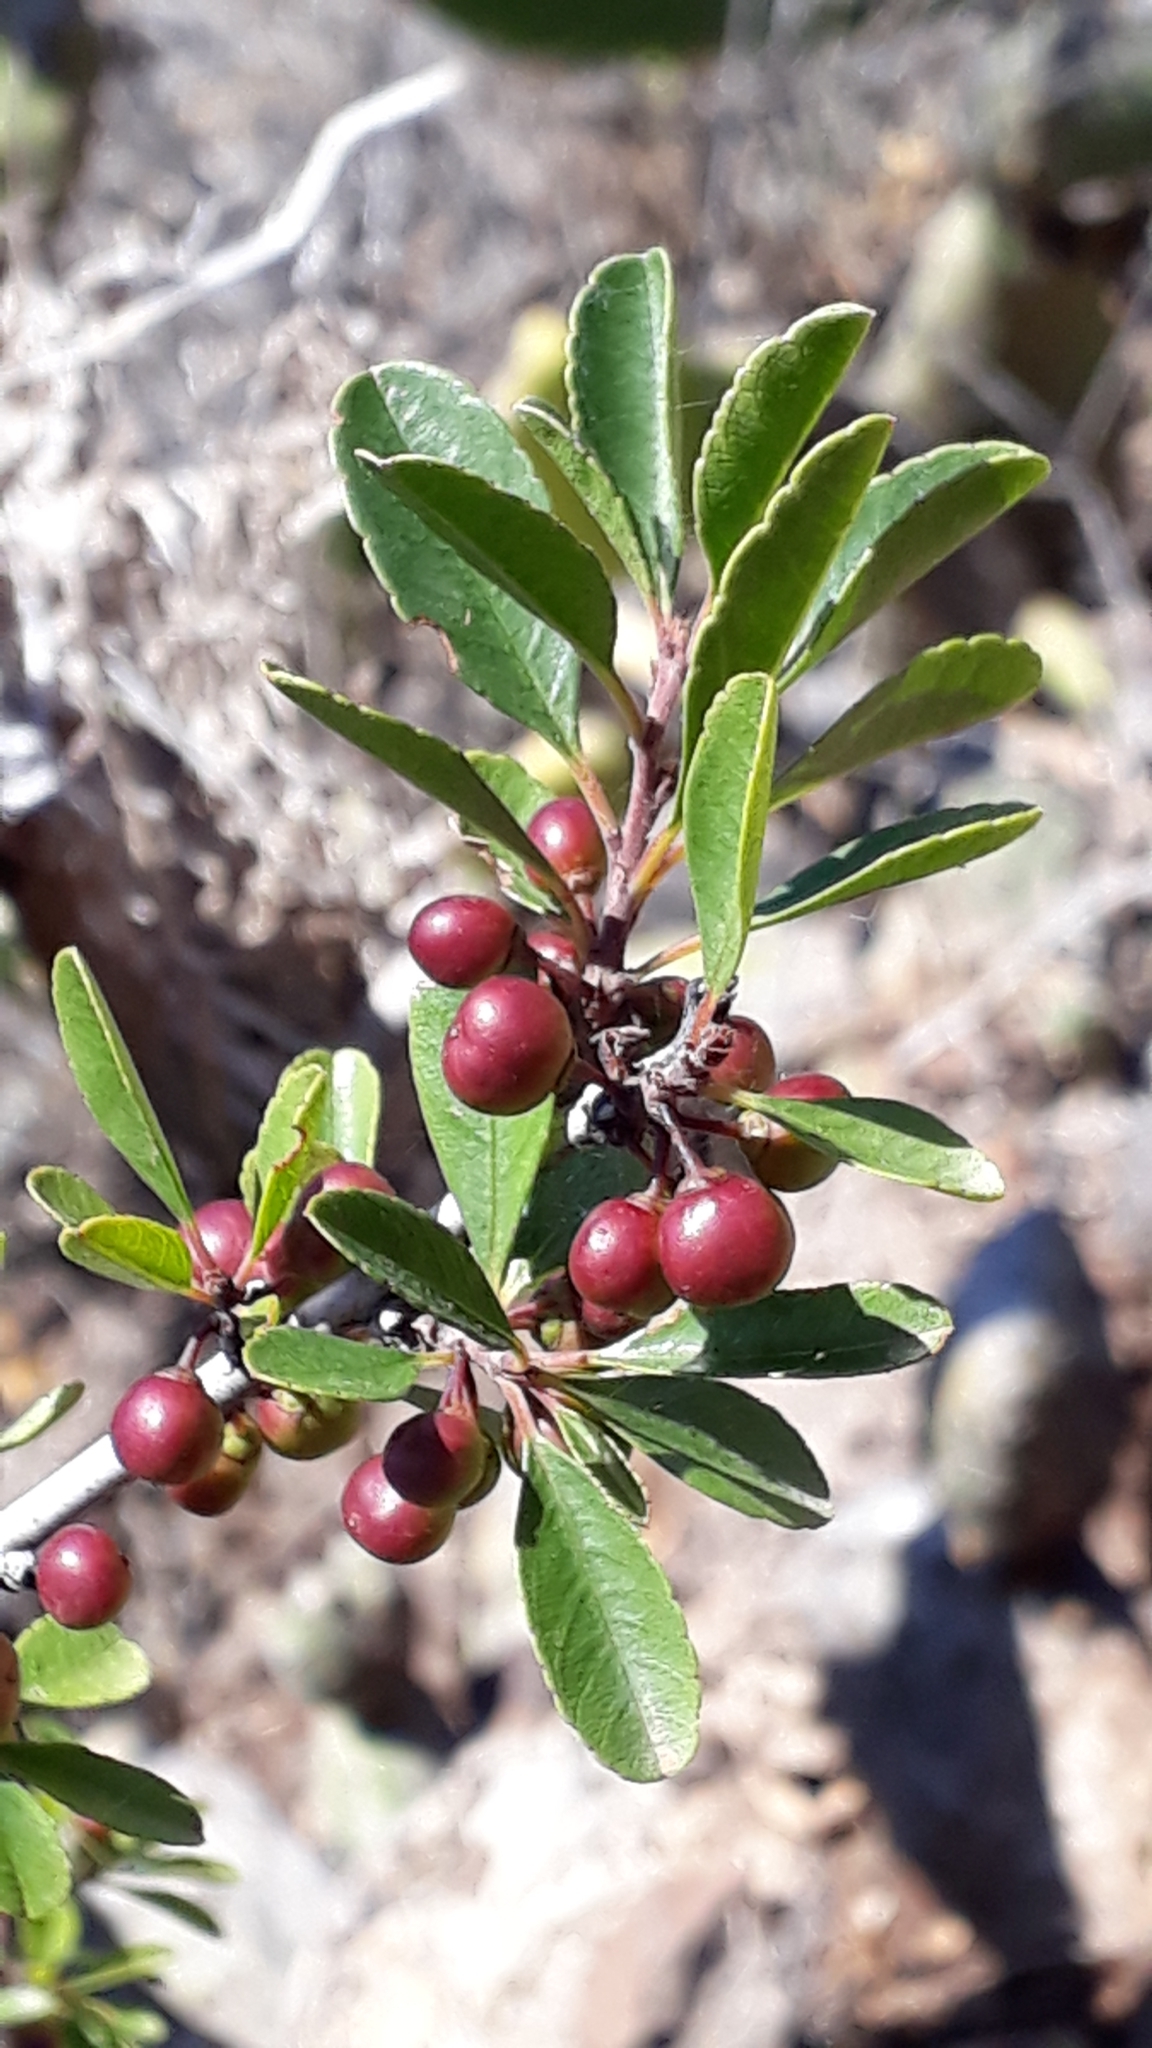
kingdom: Plantae
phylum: Tracheophyta
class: Magnoliopsida
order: Rosales
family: Rhamnaceae
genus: Rhamnus
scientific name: Rhamnus crenulata
